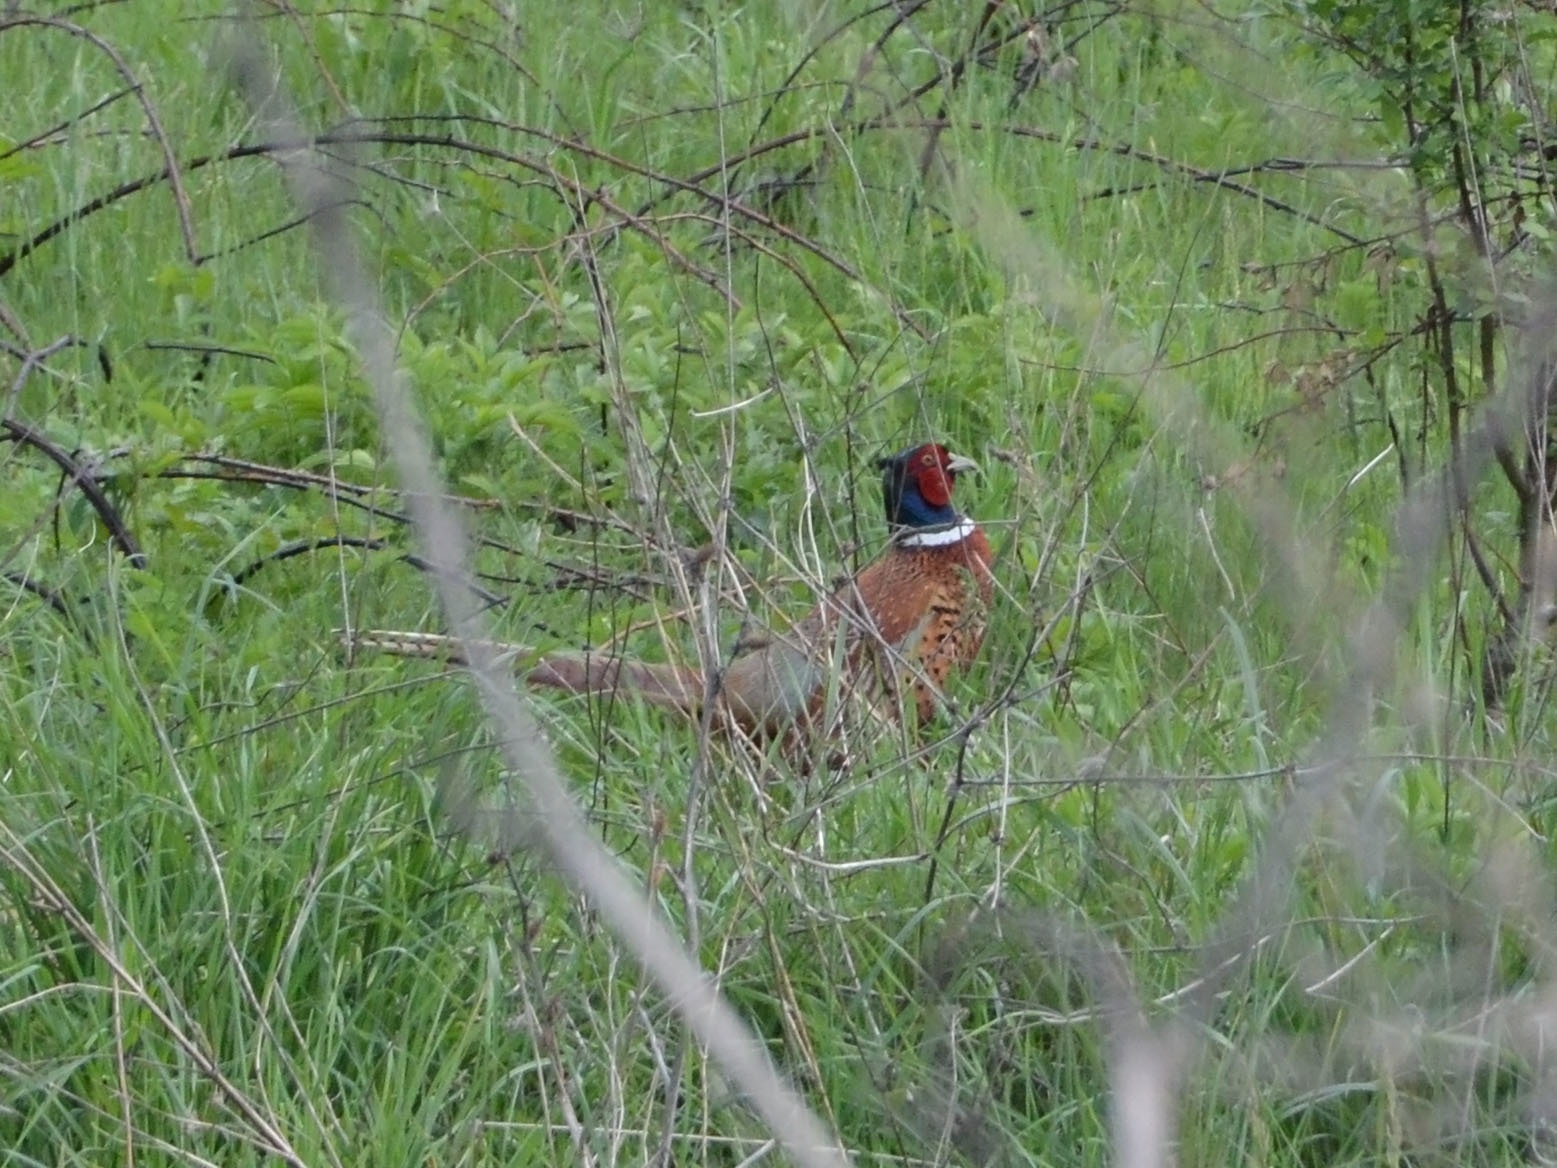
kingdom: Animalia
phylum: Chordata
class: Aves
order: Galliformes
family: Phasianidae
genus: Phasianus
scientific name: Phasianus colchicus
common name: Common pheasant
